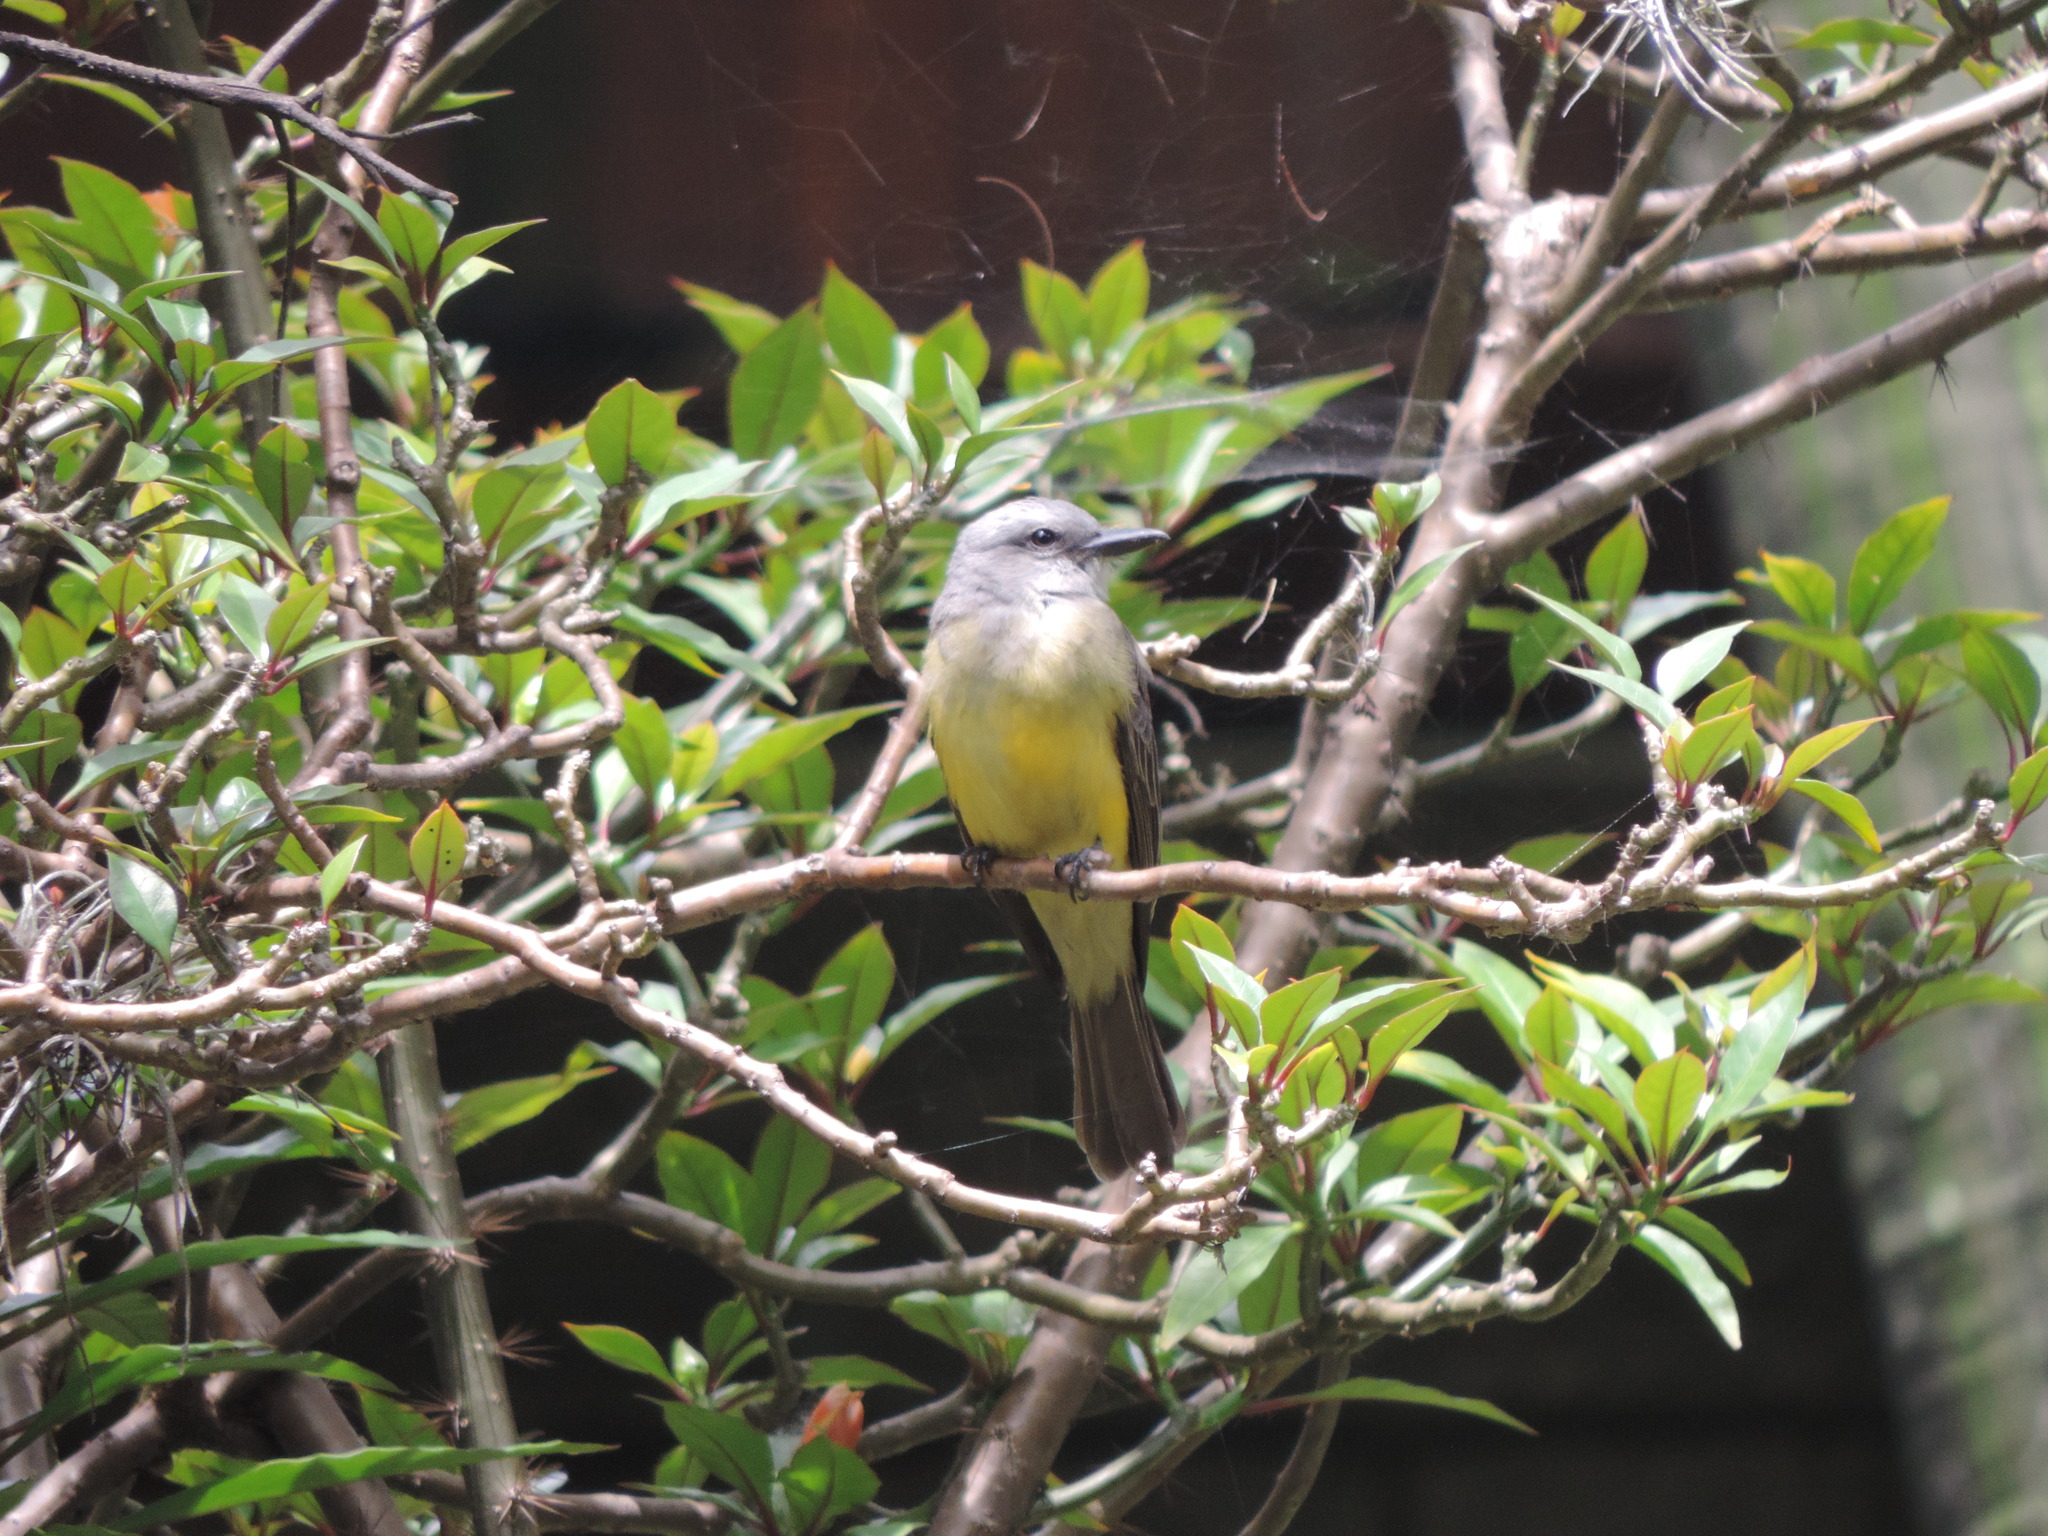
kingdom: Animalia
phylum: Chordata
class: Aves
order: Passeriformes
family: Tyrannidae
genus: Tyrannus
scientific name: Tyrannus melancholicus
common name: Tropical kingbird
